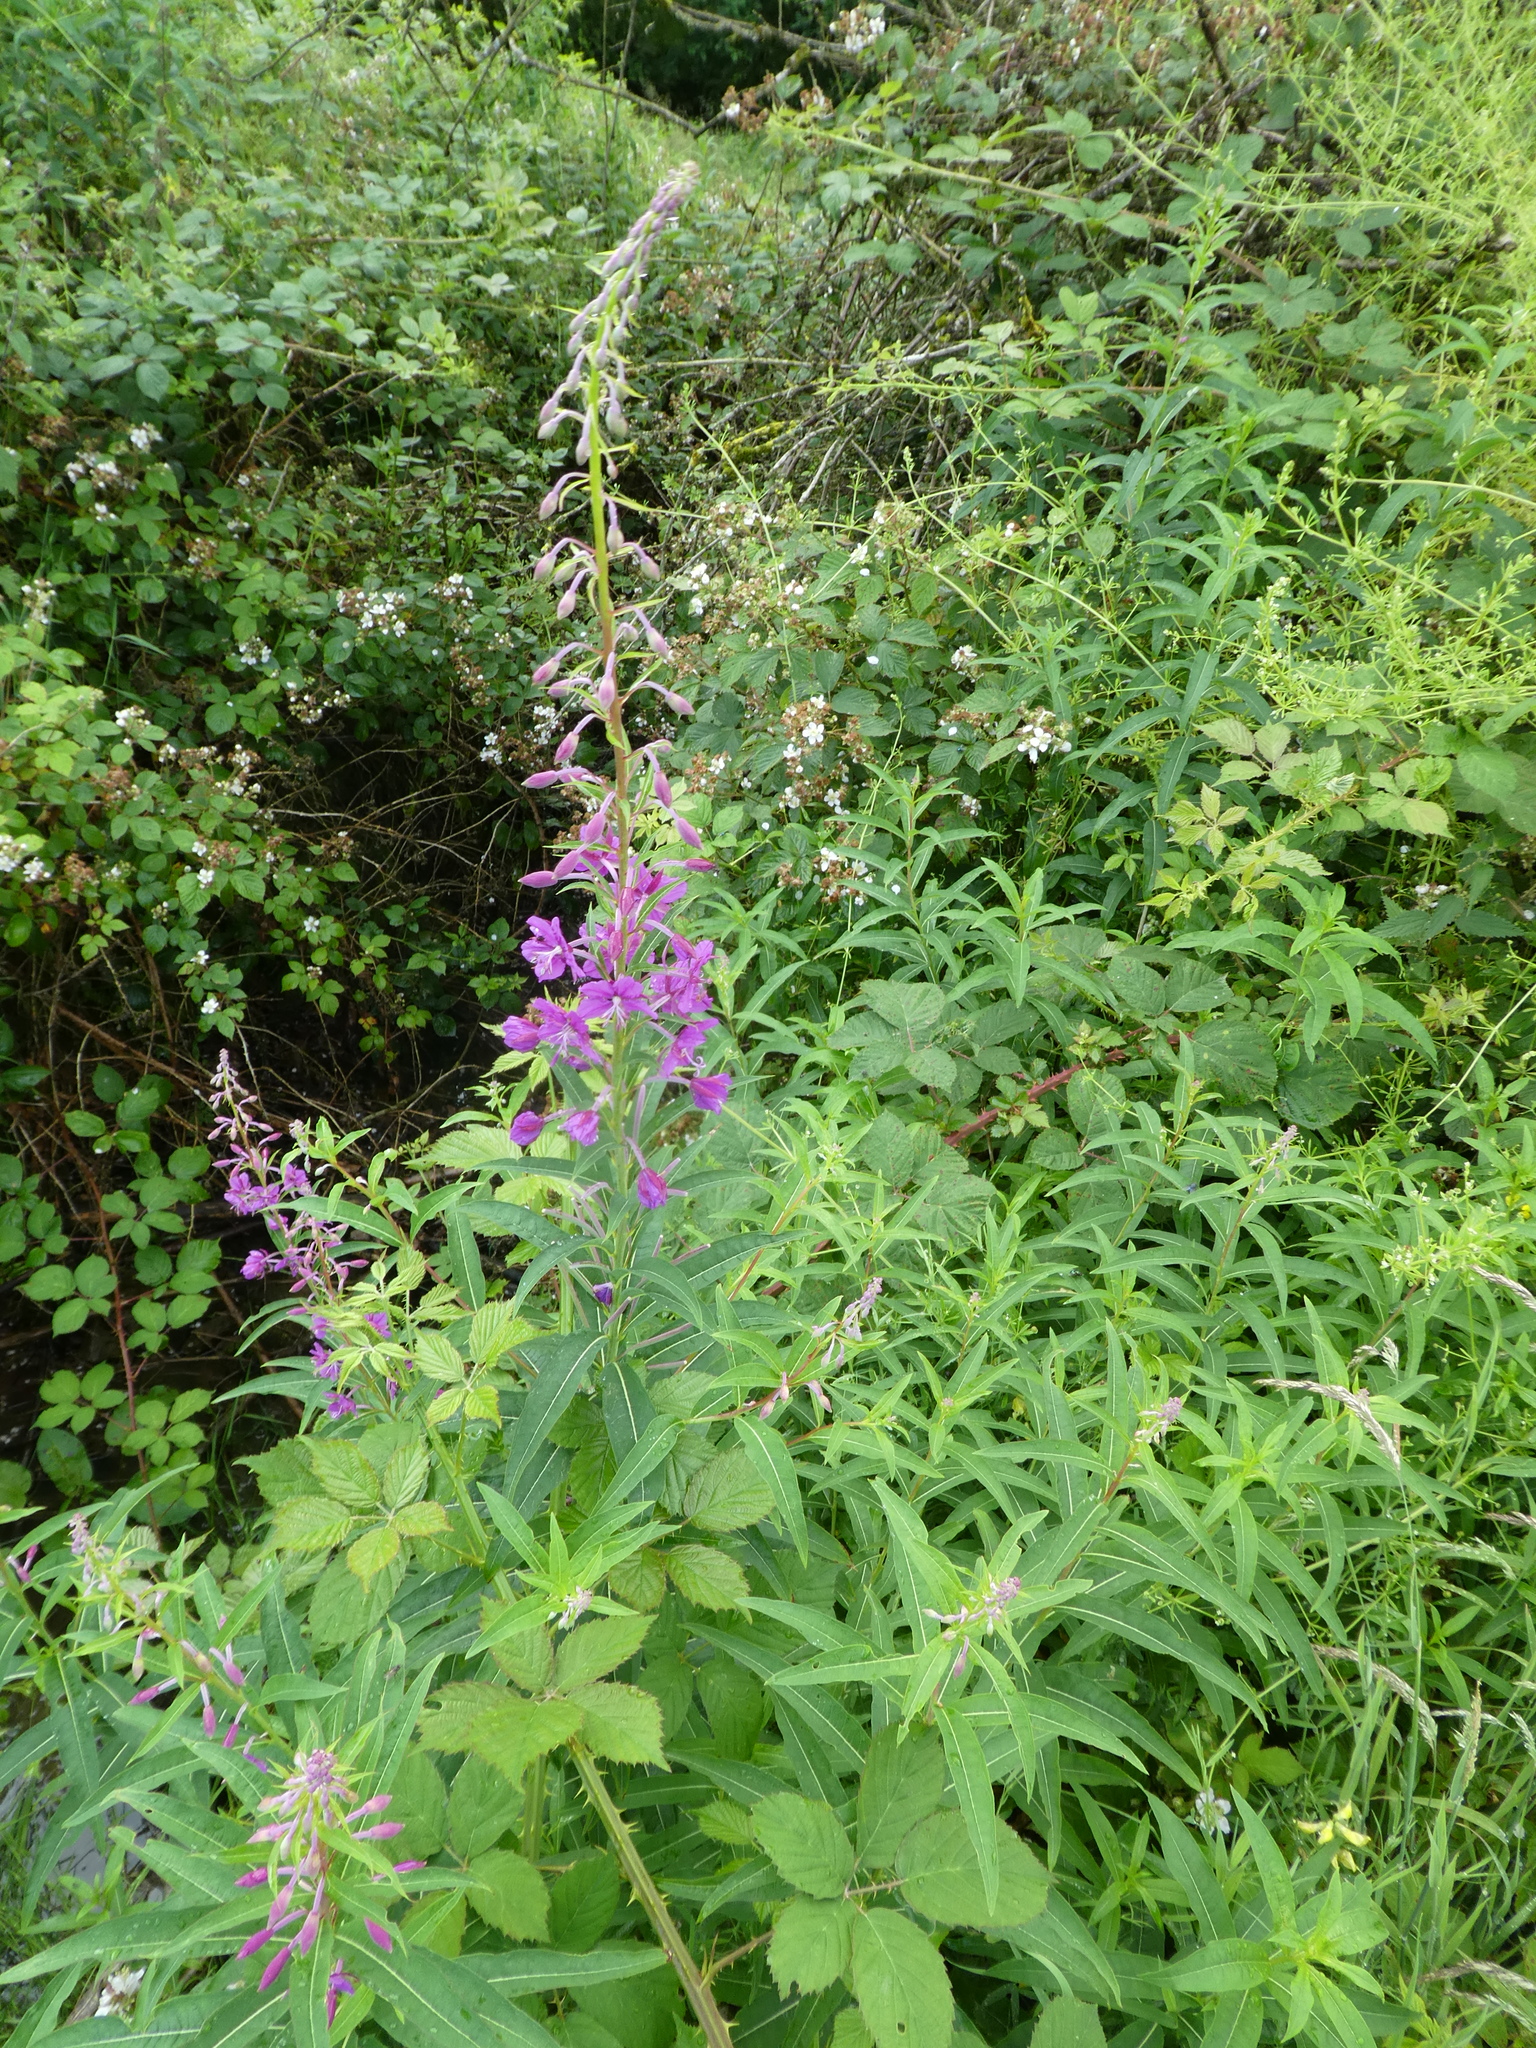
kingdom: Plantae
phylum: Tracheophyta
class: Magnoliopsida
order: Myrtales
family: Onagraceae
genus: Chamaenerion
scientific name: Chamaenerion angustifolium
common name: Fireweed
